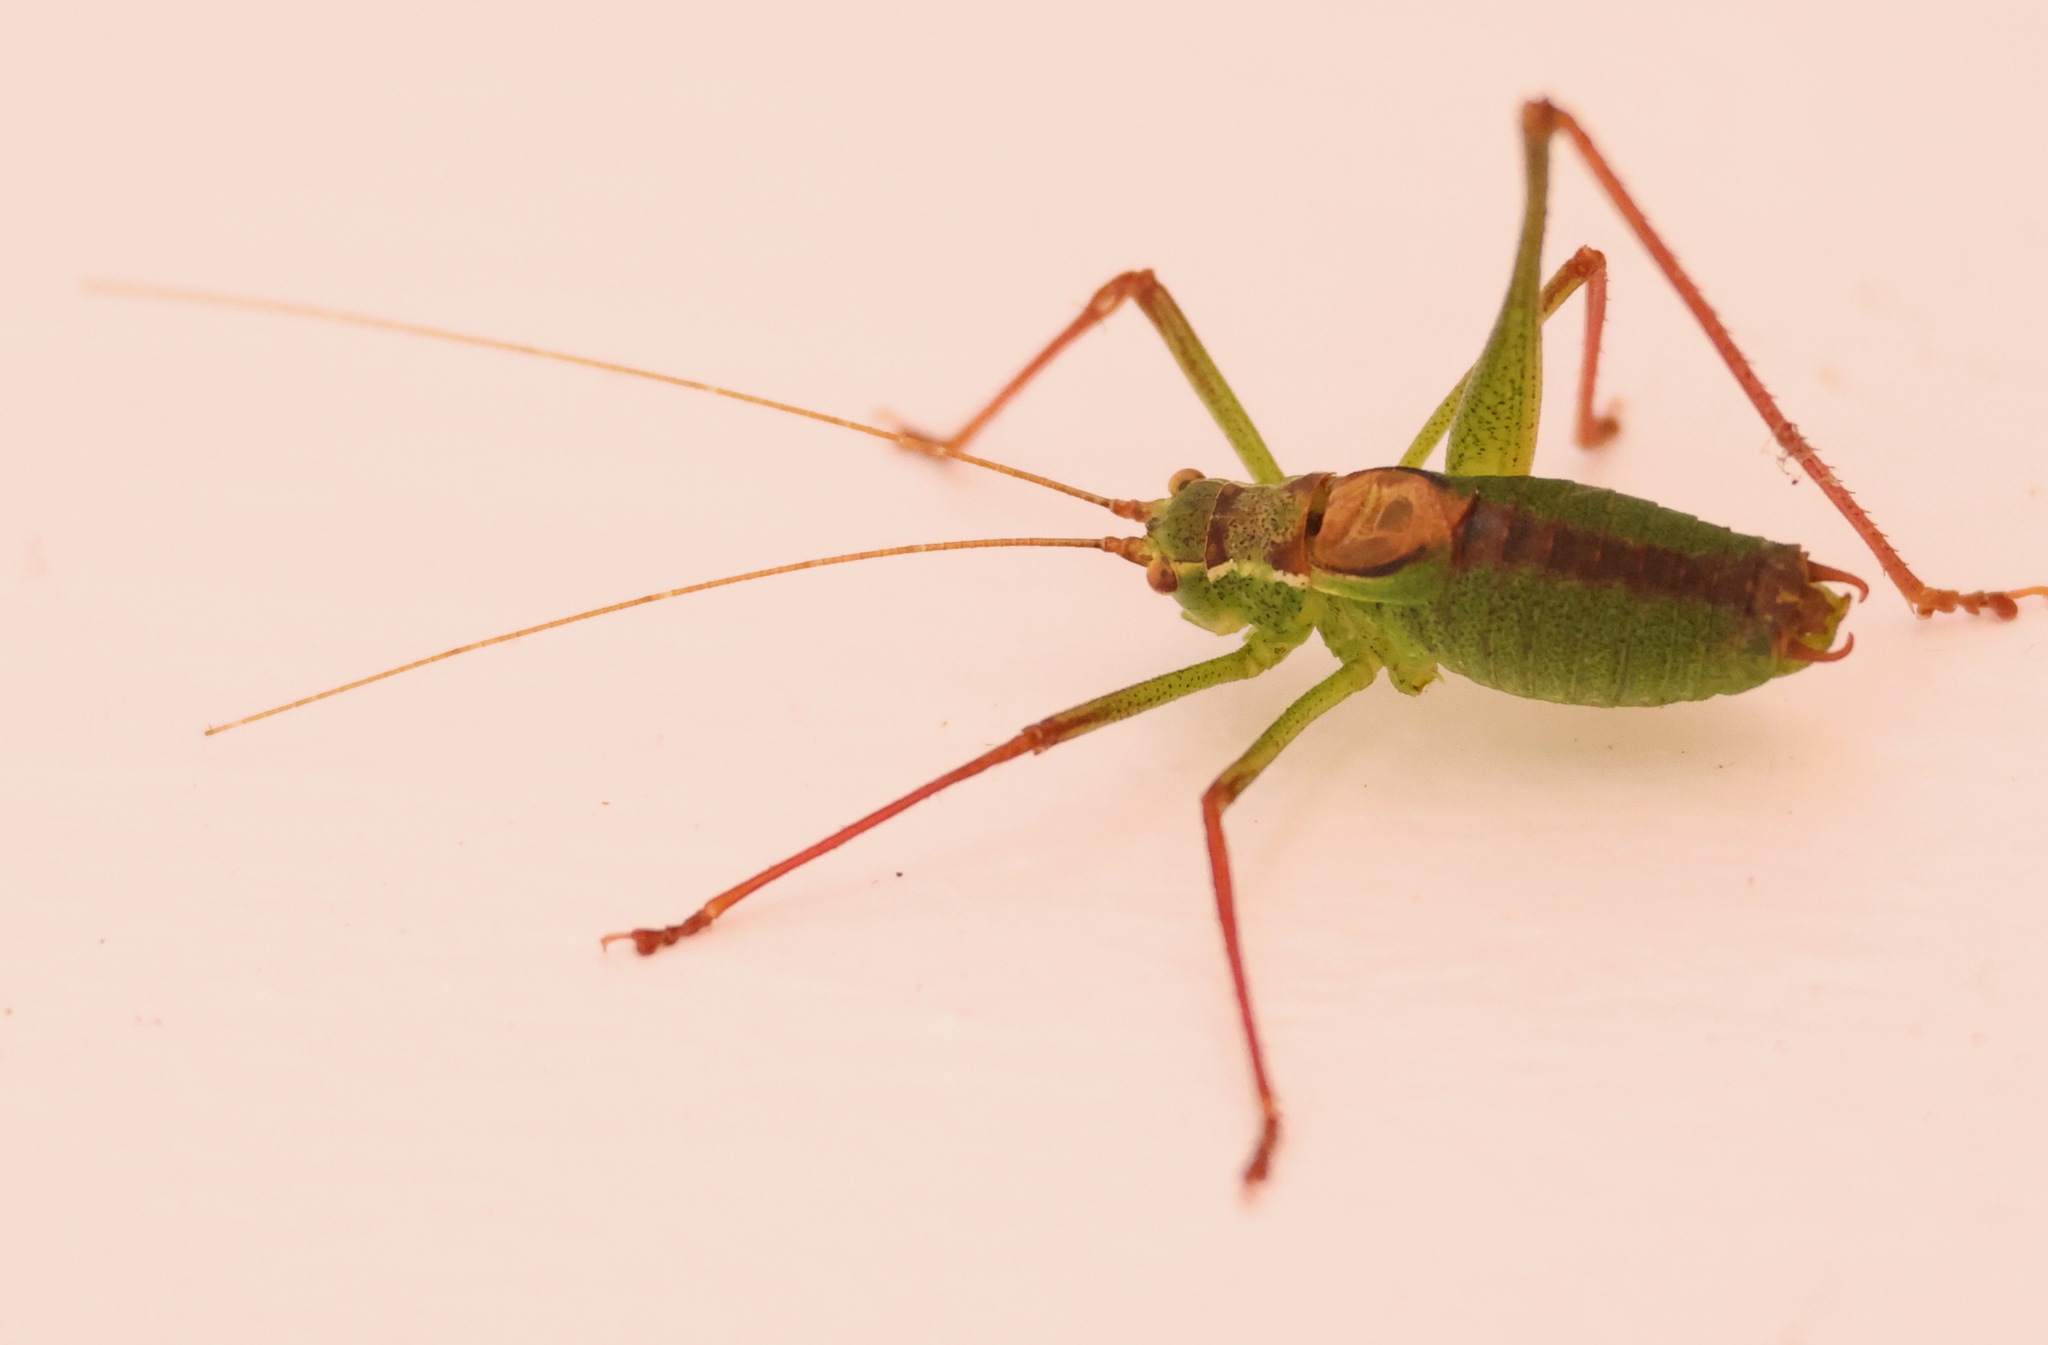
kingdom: Animalia
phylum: Arthropoda
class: Insecta
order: Orthoptera
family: Tettigoniidae
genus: Leptophyes
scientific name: Leptophyes punctatissima
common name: Speckled bush-cricket
